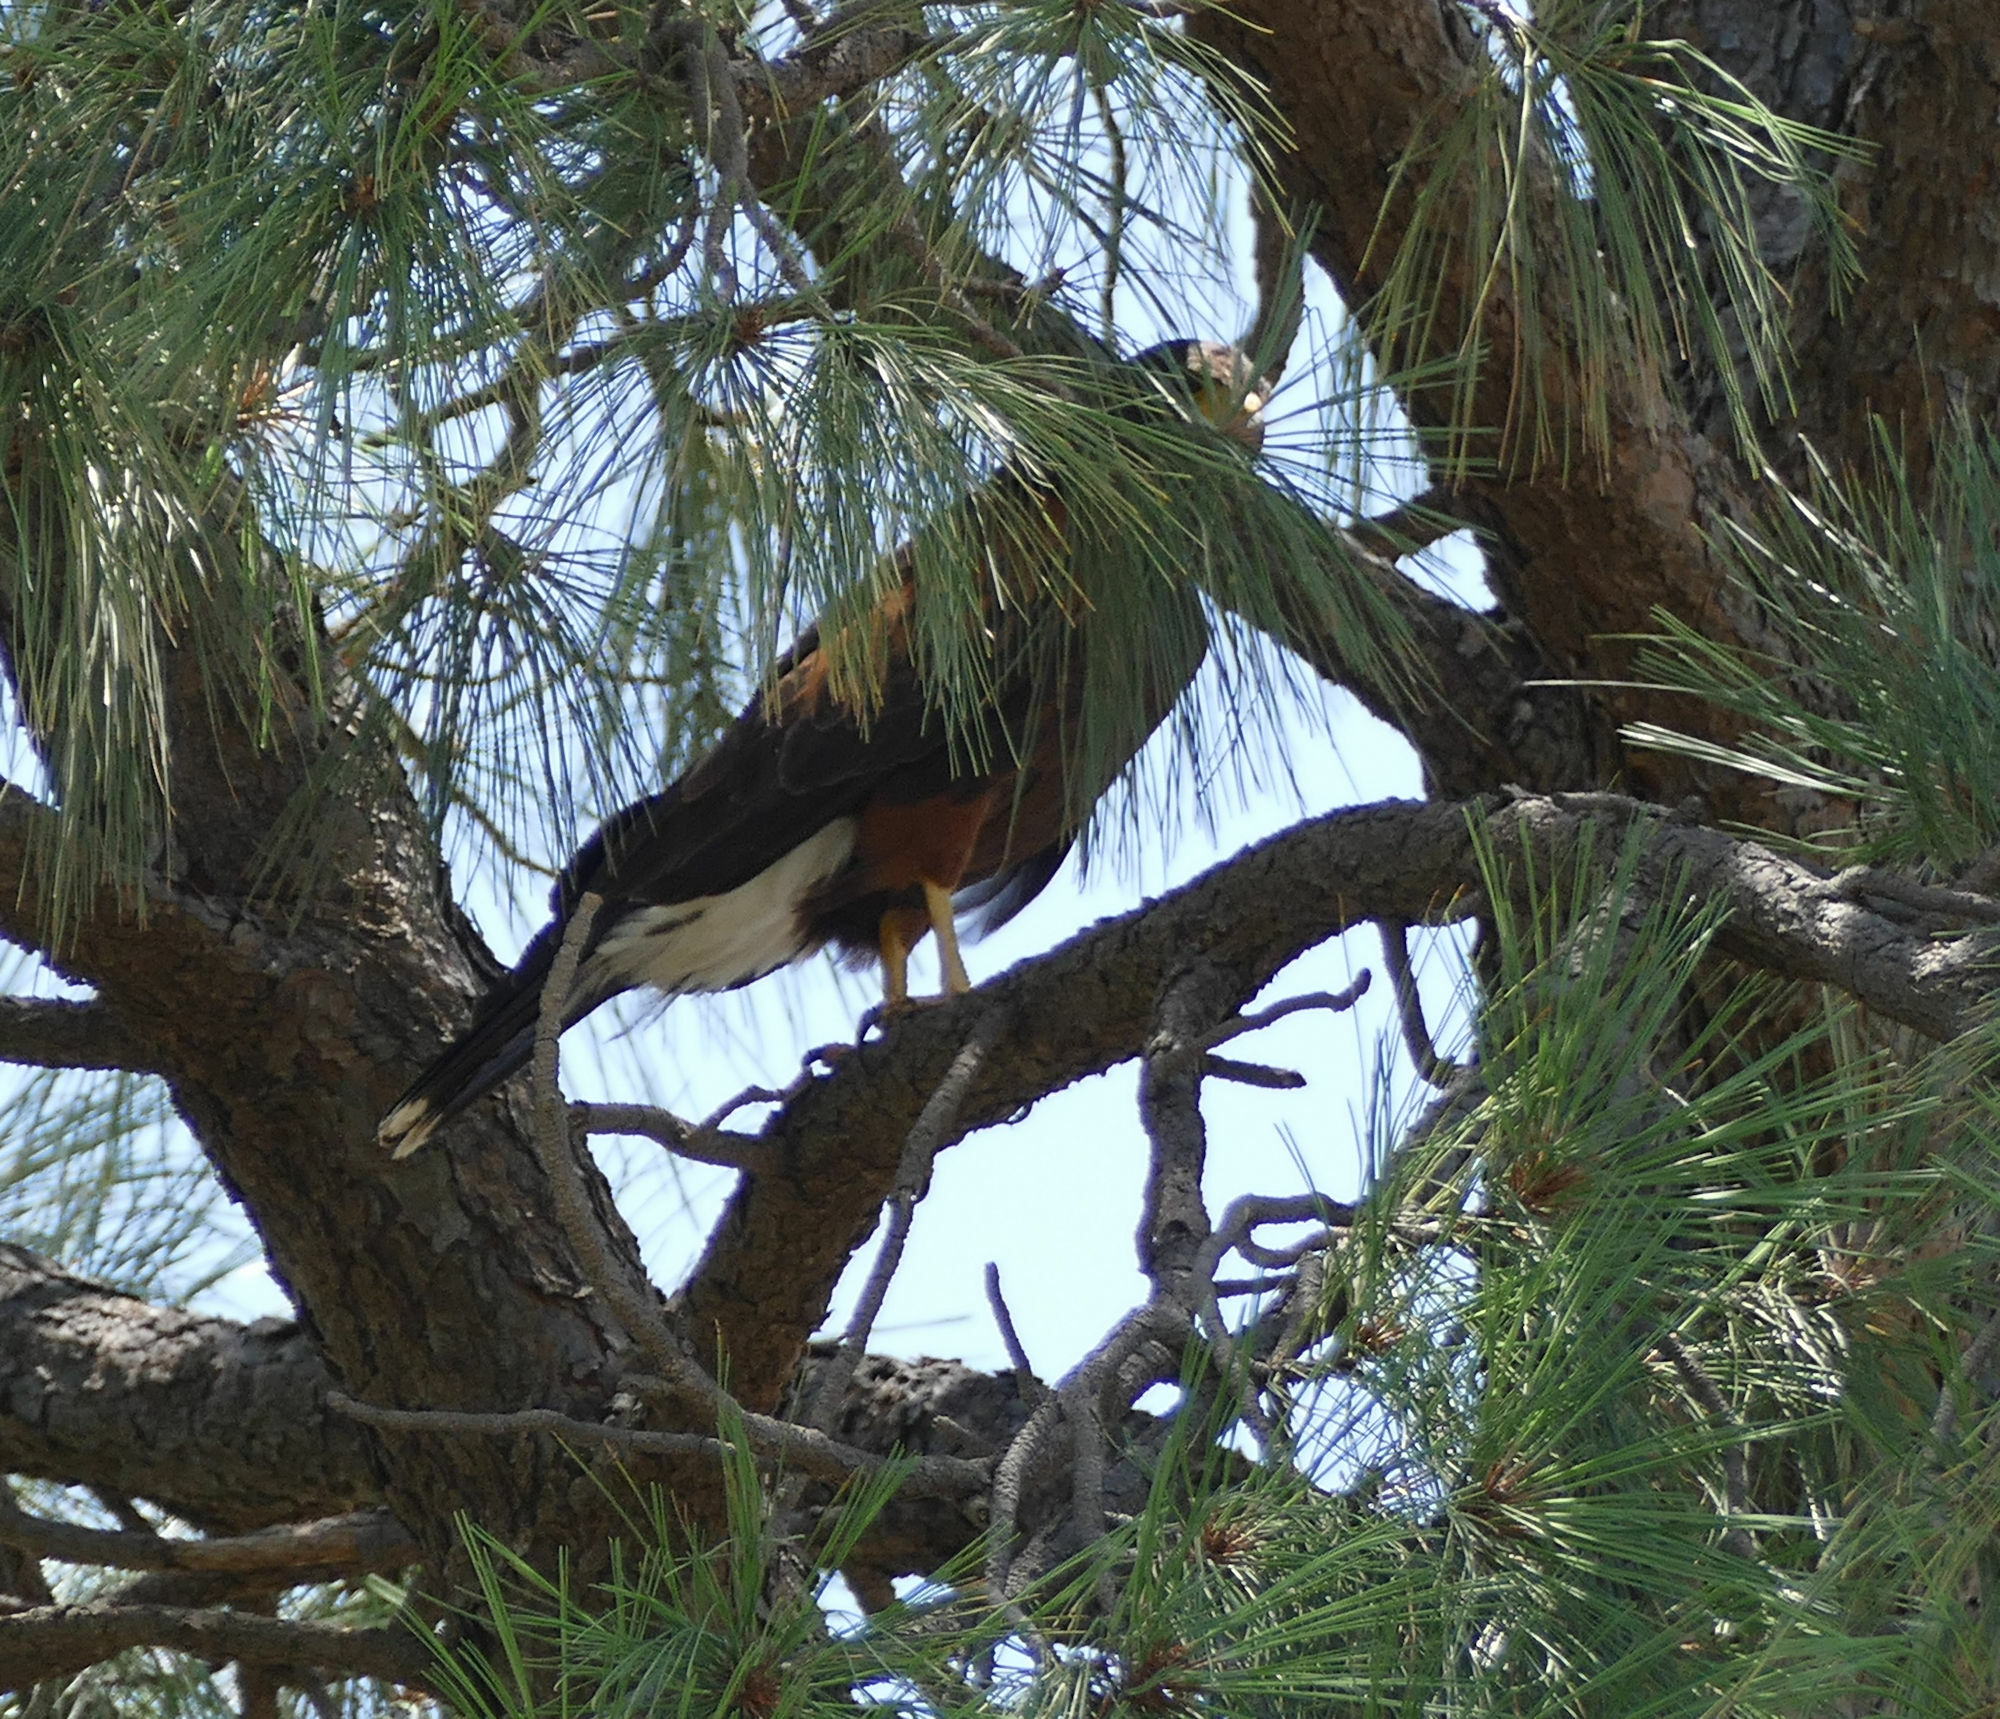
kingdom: Animalia
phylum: Chordata
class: Aves
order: Accipitriformes
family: Accipitridae
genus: Parabuteo
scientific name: Parabuteo unicinctus
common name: Harris's hawk
